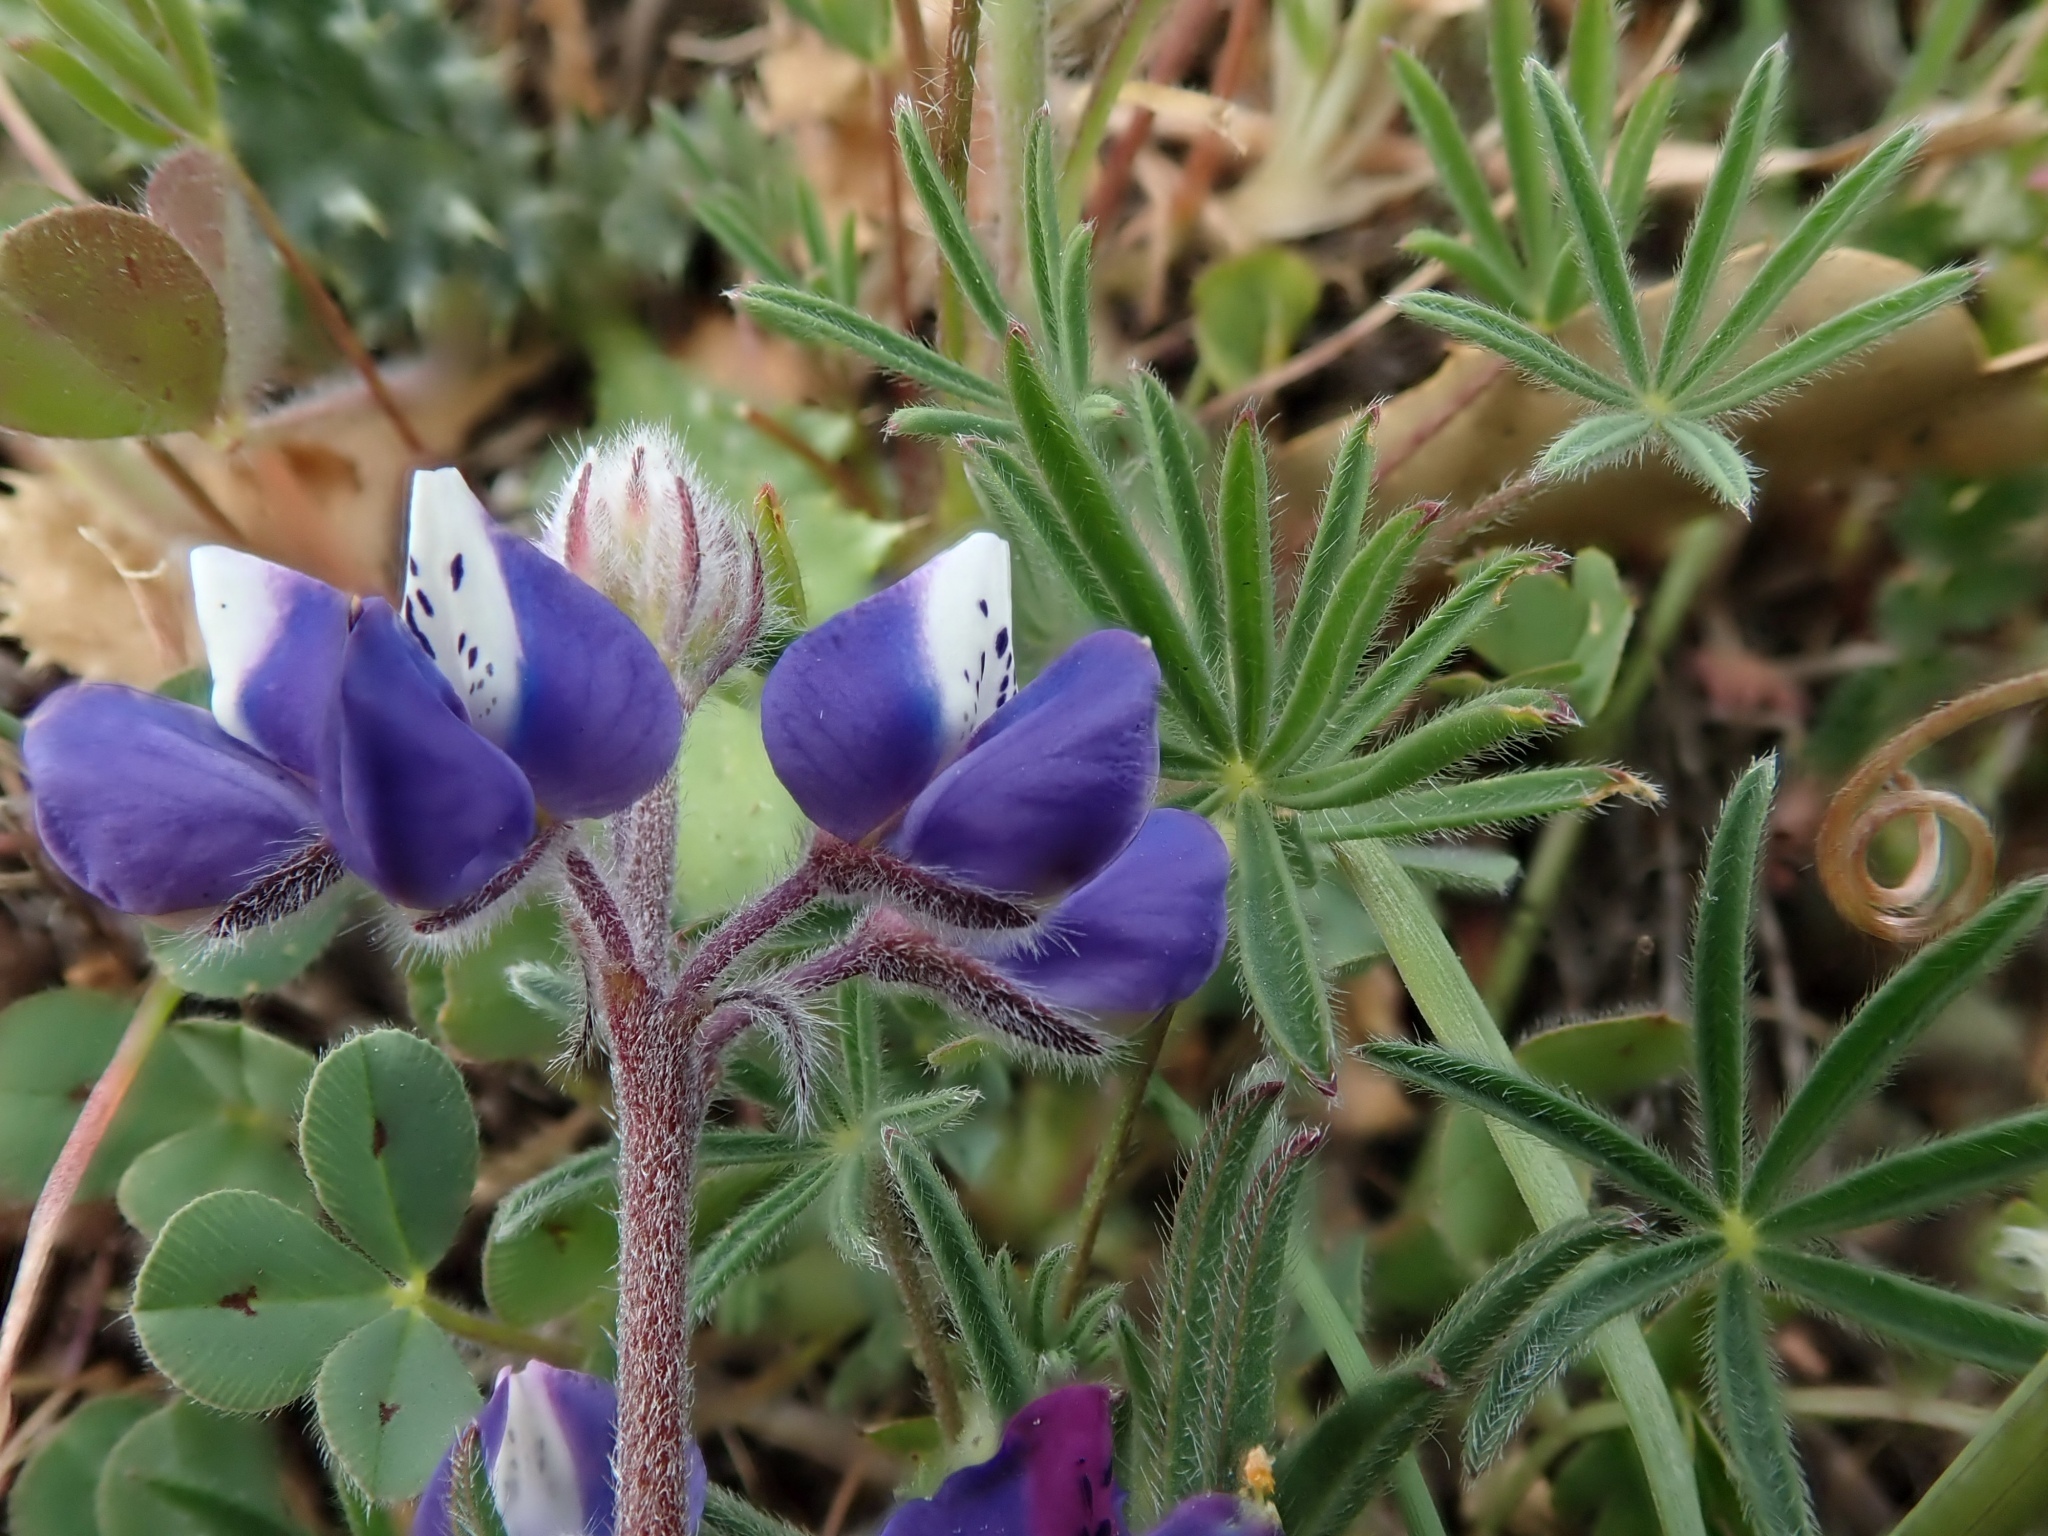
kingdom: Plantae
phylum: Tracheophyta
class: Magnoliopsida
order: Fabales
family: Fabaceae
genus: Lupinus
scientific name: Lupinus bicolor
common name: Miniature lupine
